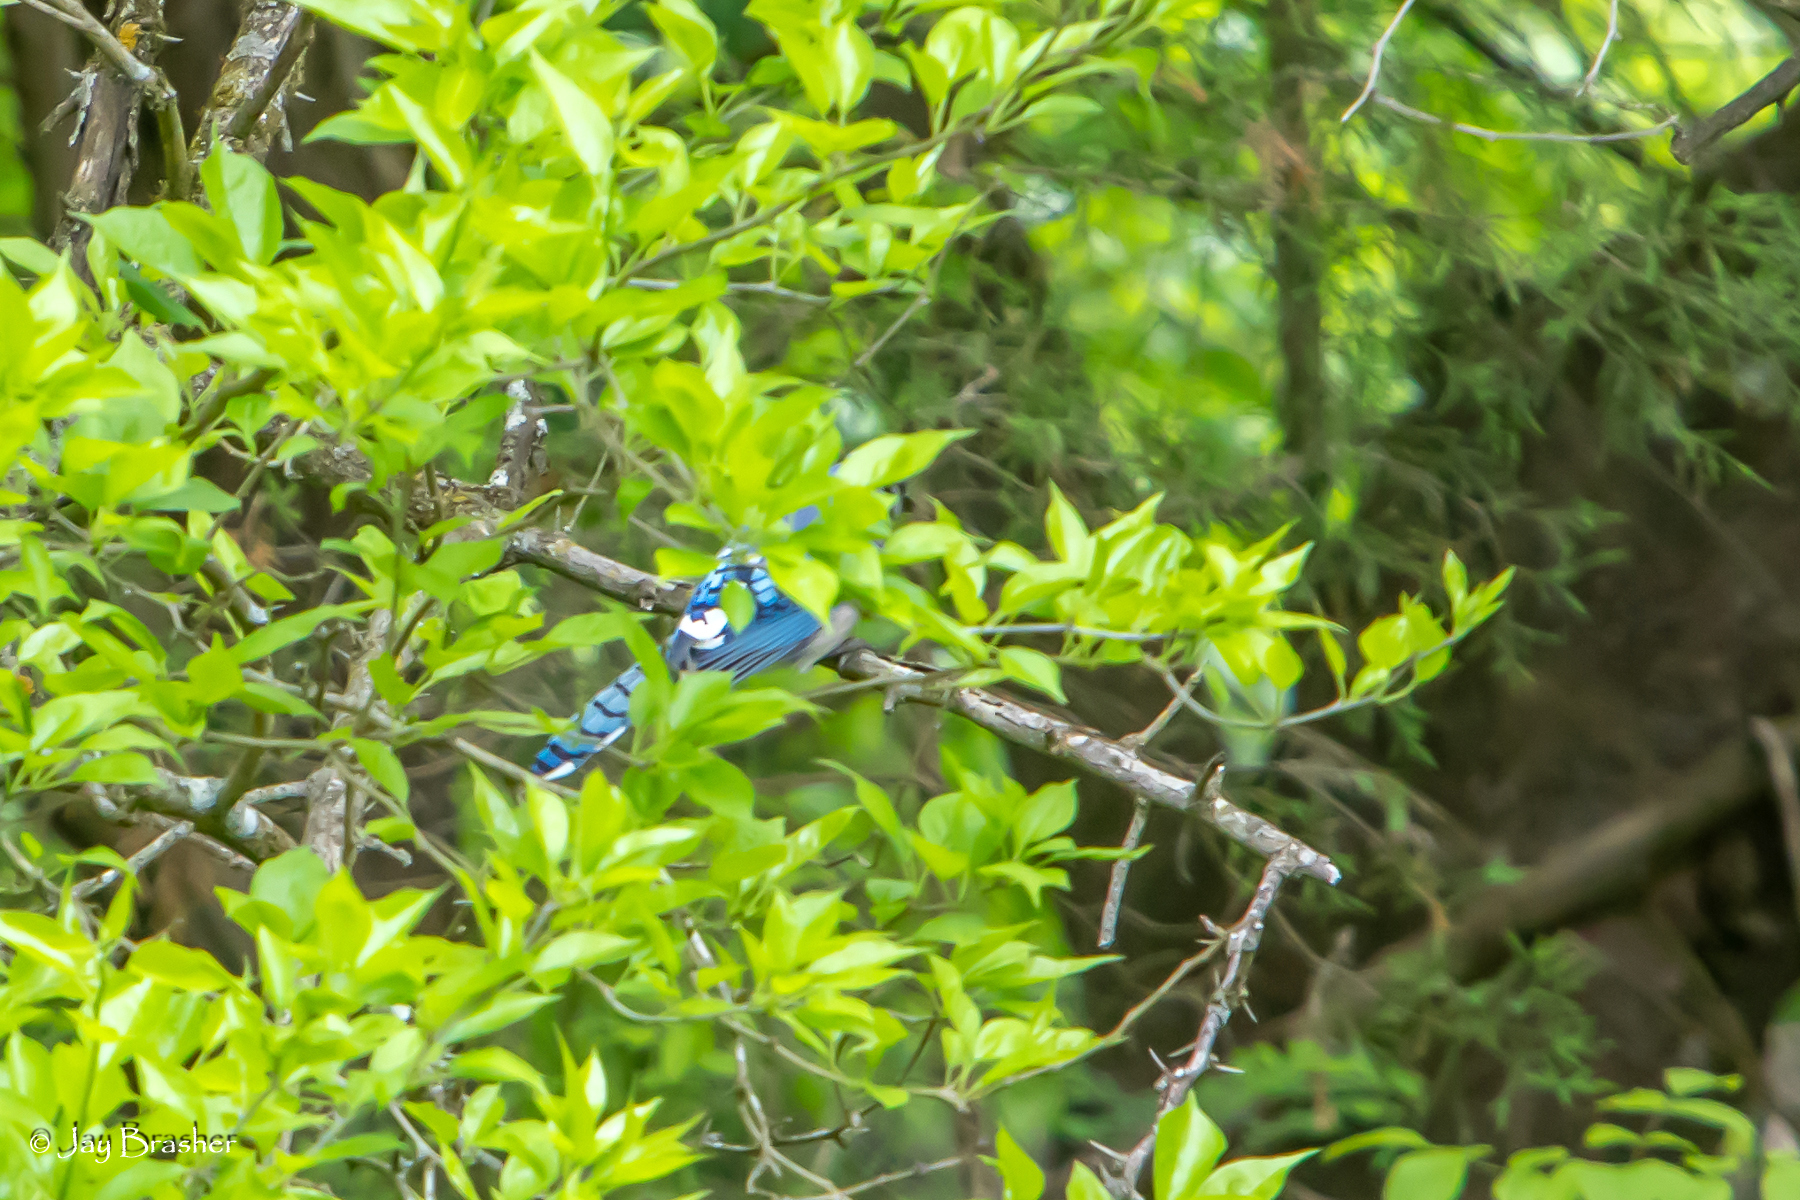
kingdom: Animalia
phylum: Chordata
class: Aves
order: Passeriformes
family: Corvidae
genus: Cyanocitta
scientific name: Cyanocitta cristata
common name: Blue jay
